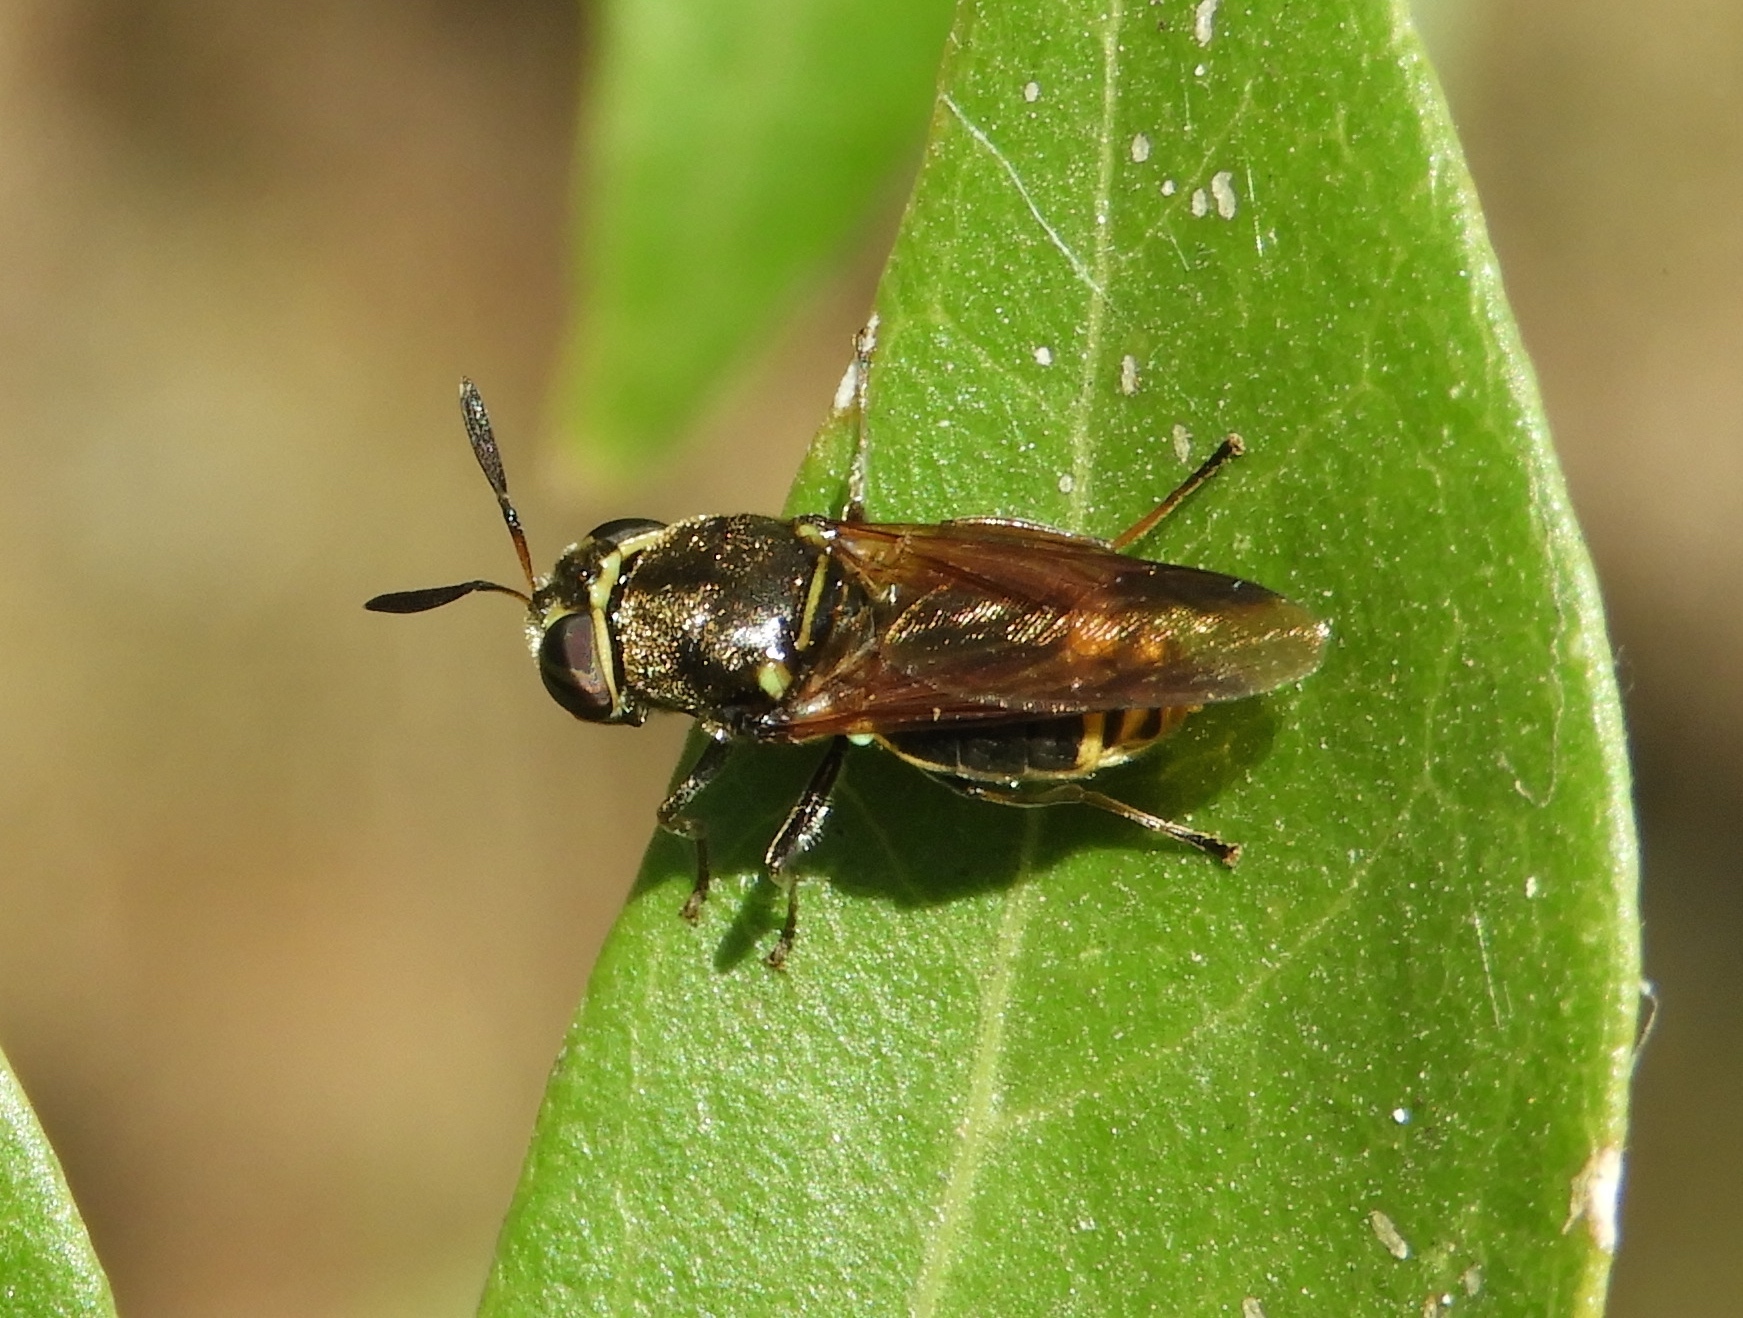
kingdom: Animalia
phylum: Arthropoda
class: Insecta
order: Diptera
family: Stratiomyidae
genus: Hoplitimyia
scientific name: Hoplitimyia
